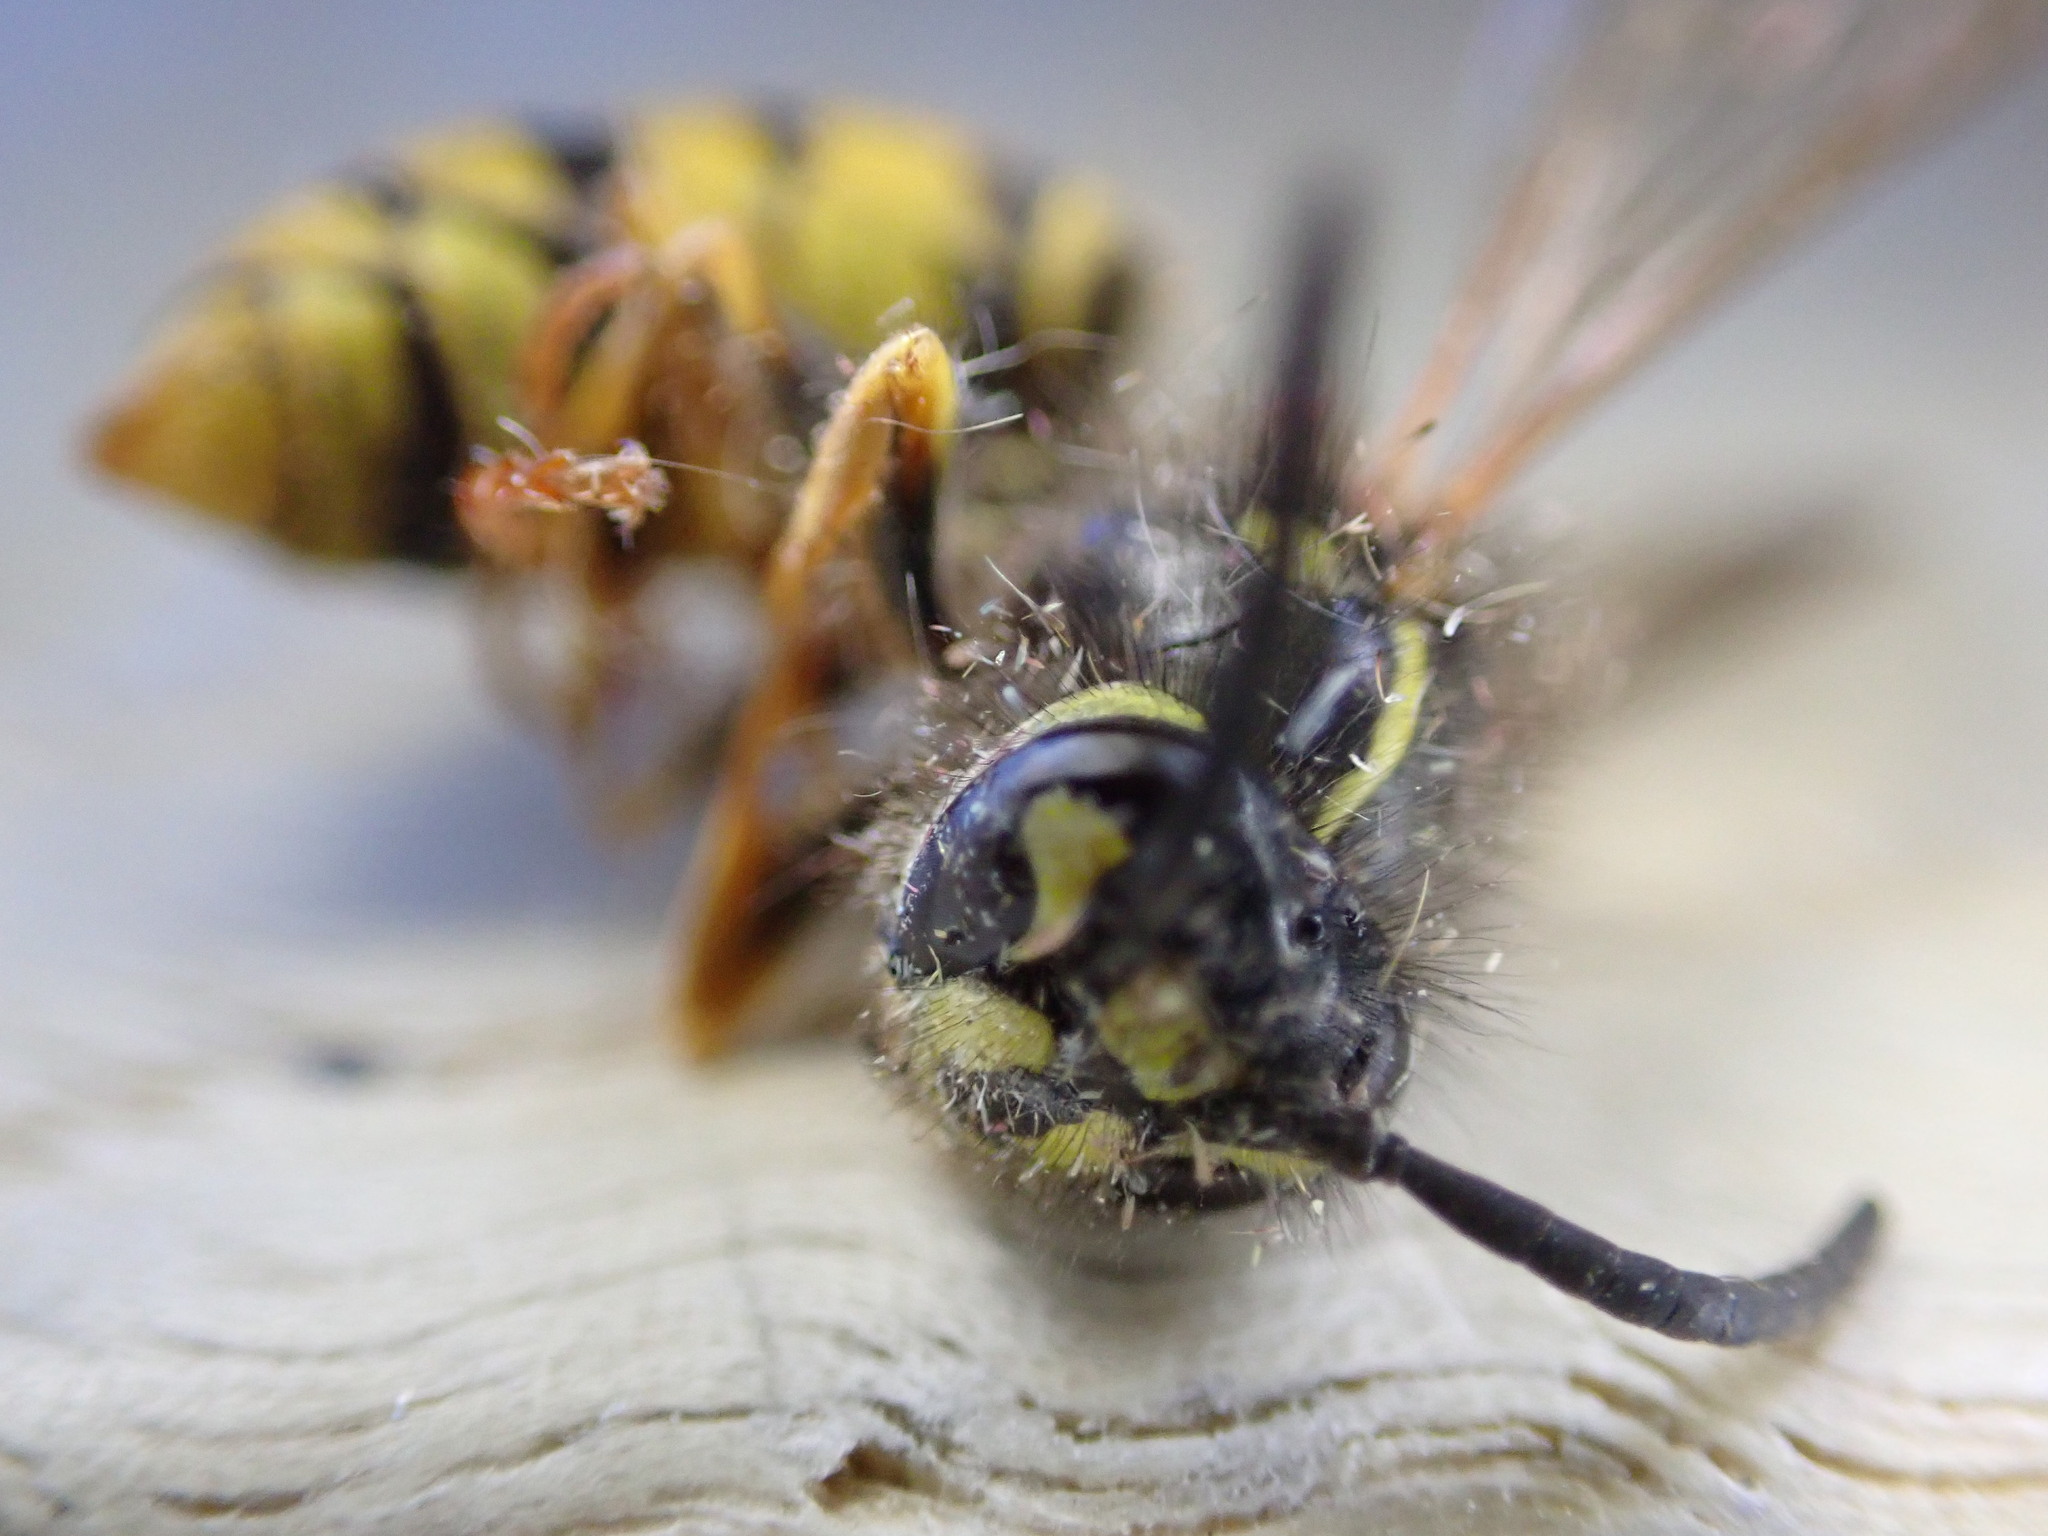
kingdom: Animalia
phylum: Arthropoda
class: Insecta
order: Hymenoptera
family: Vespidae
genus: Vespula
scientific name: Vespula vulgaris
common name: Common wasp
